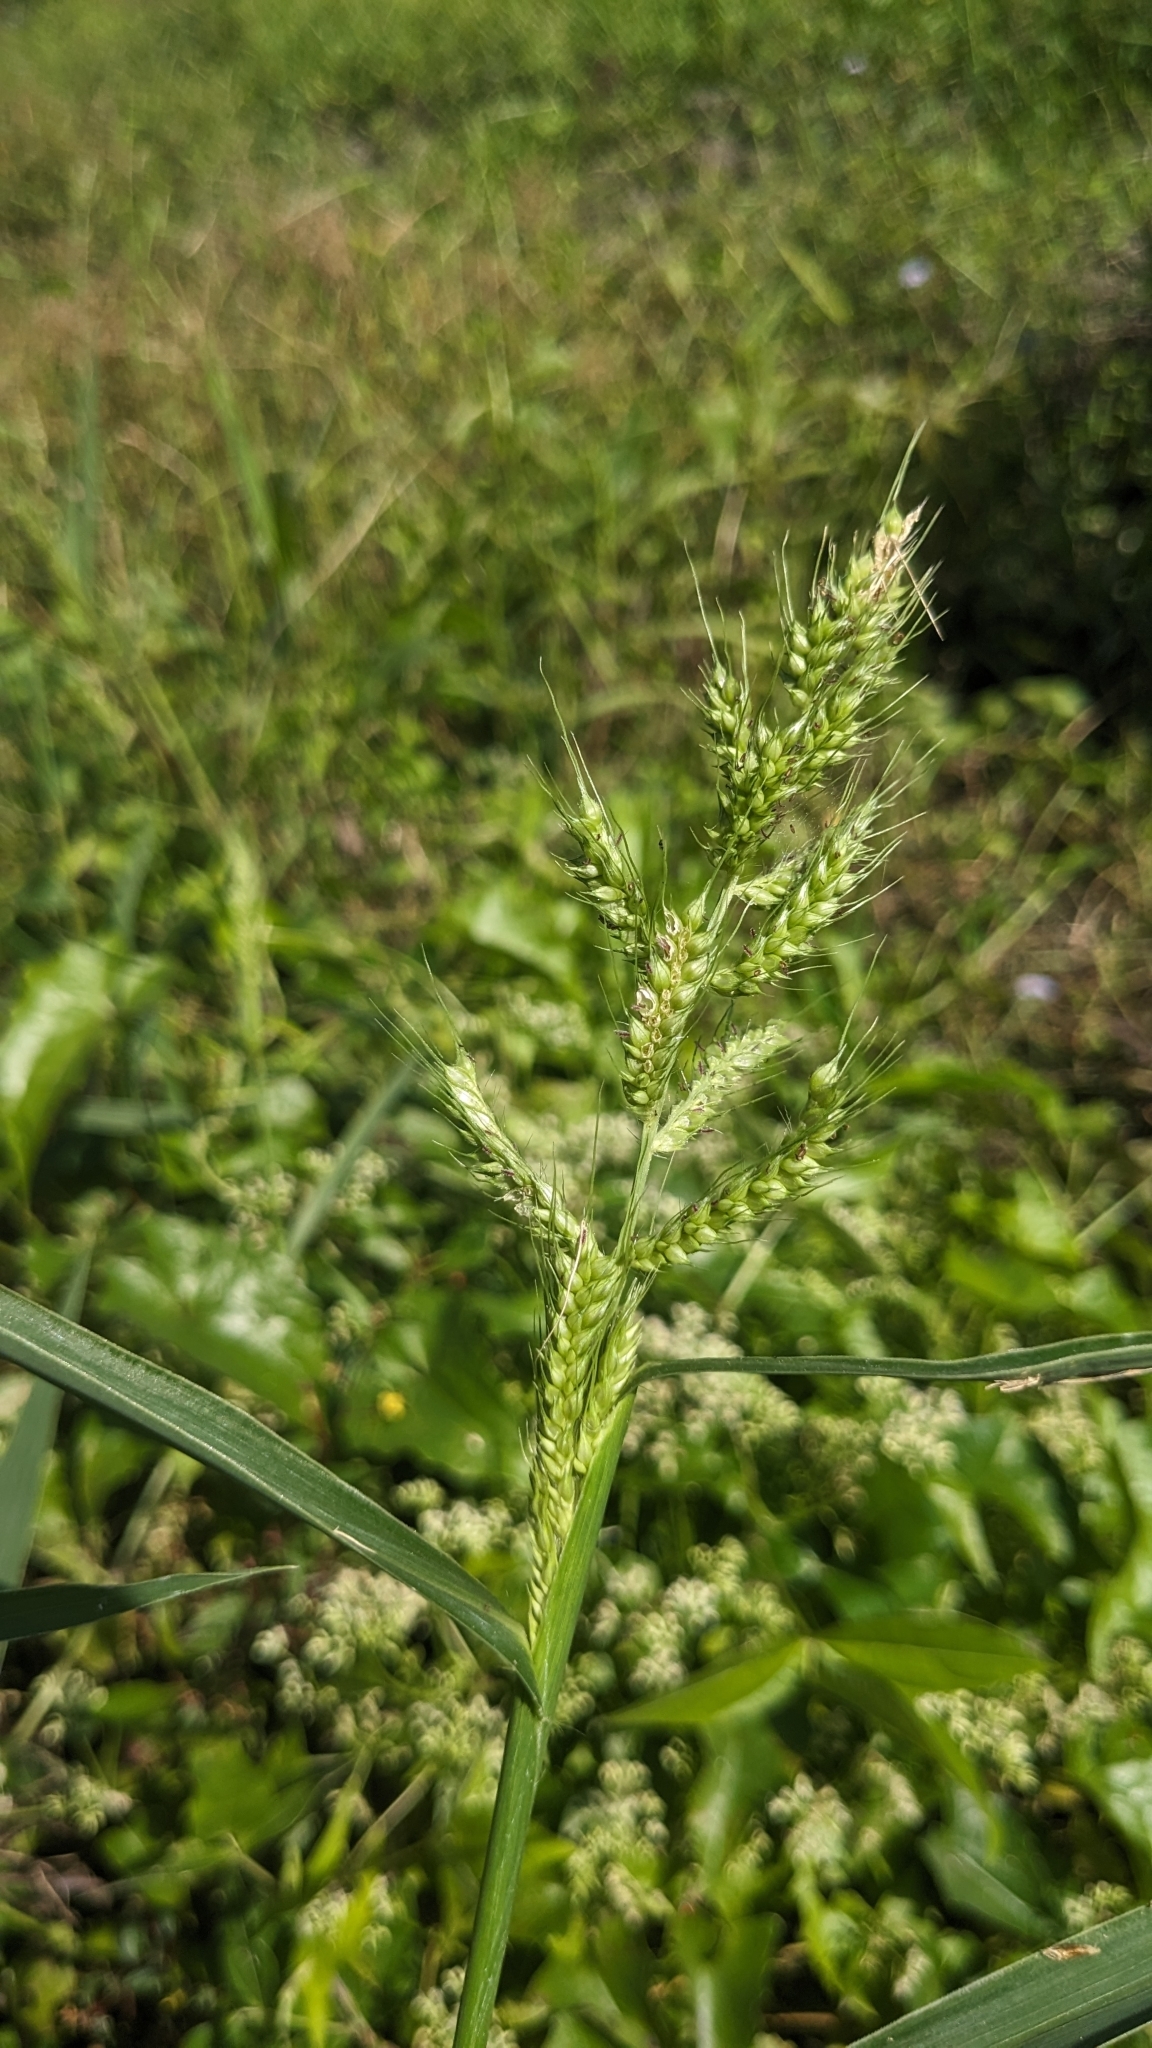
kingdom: Plantae
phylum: Tracheophyta
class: Liliopsida
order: Poales
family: Poaceae
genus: Echinochloa
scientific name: Echinochloa crus-galli
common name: Cockspur
